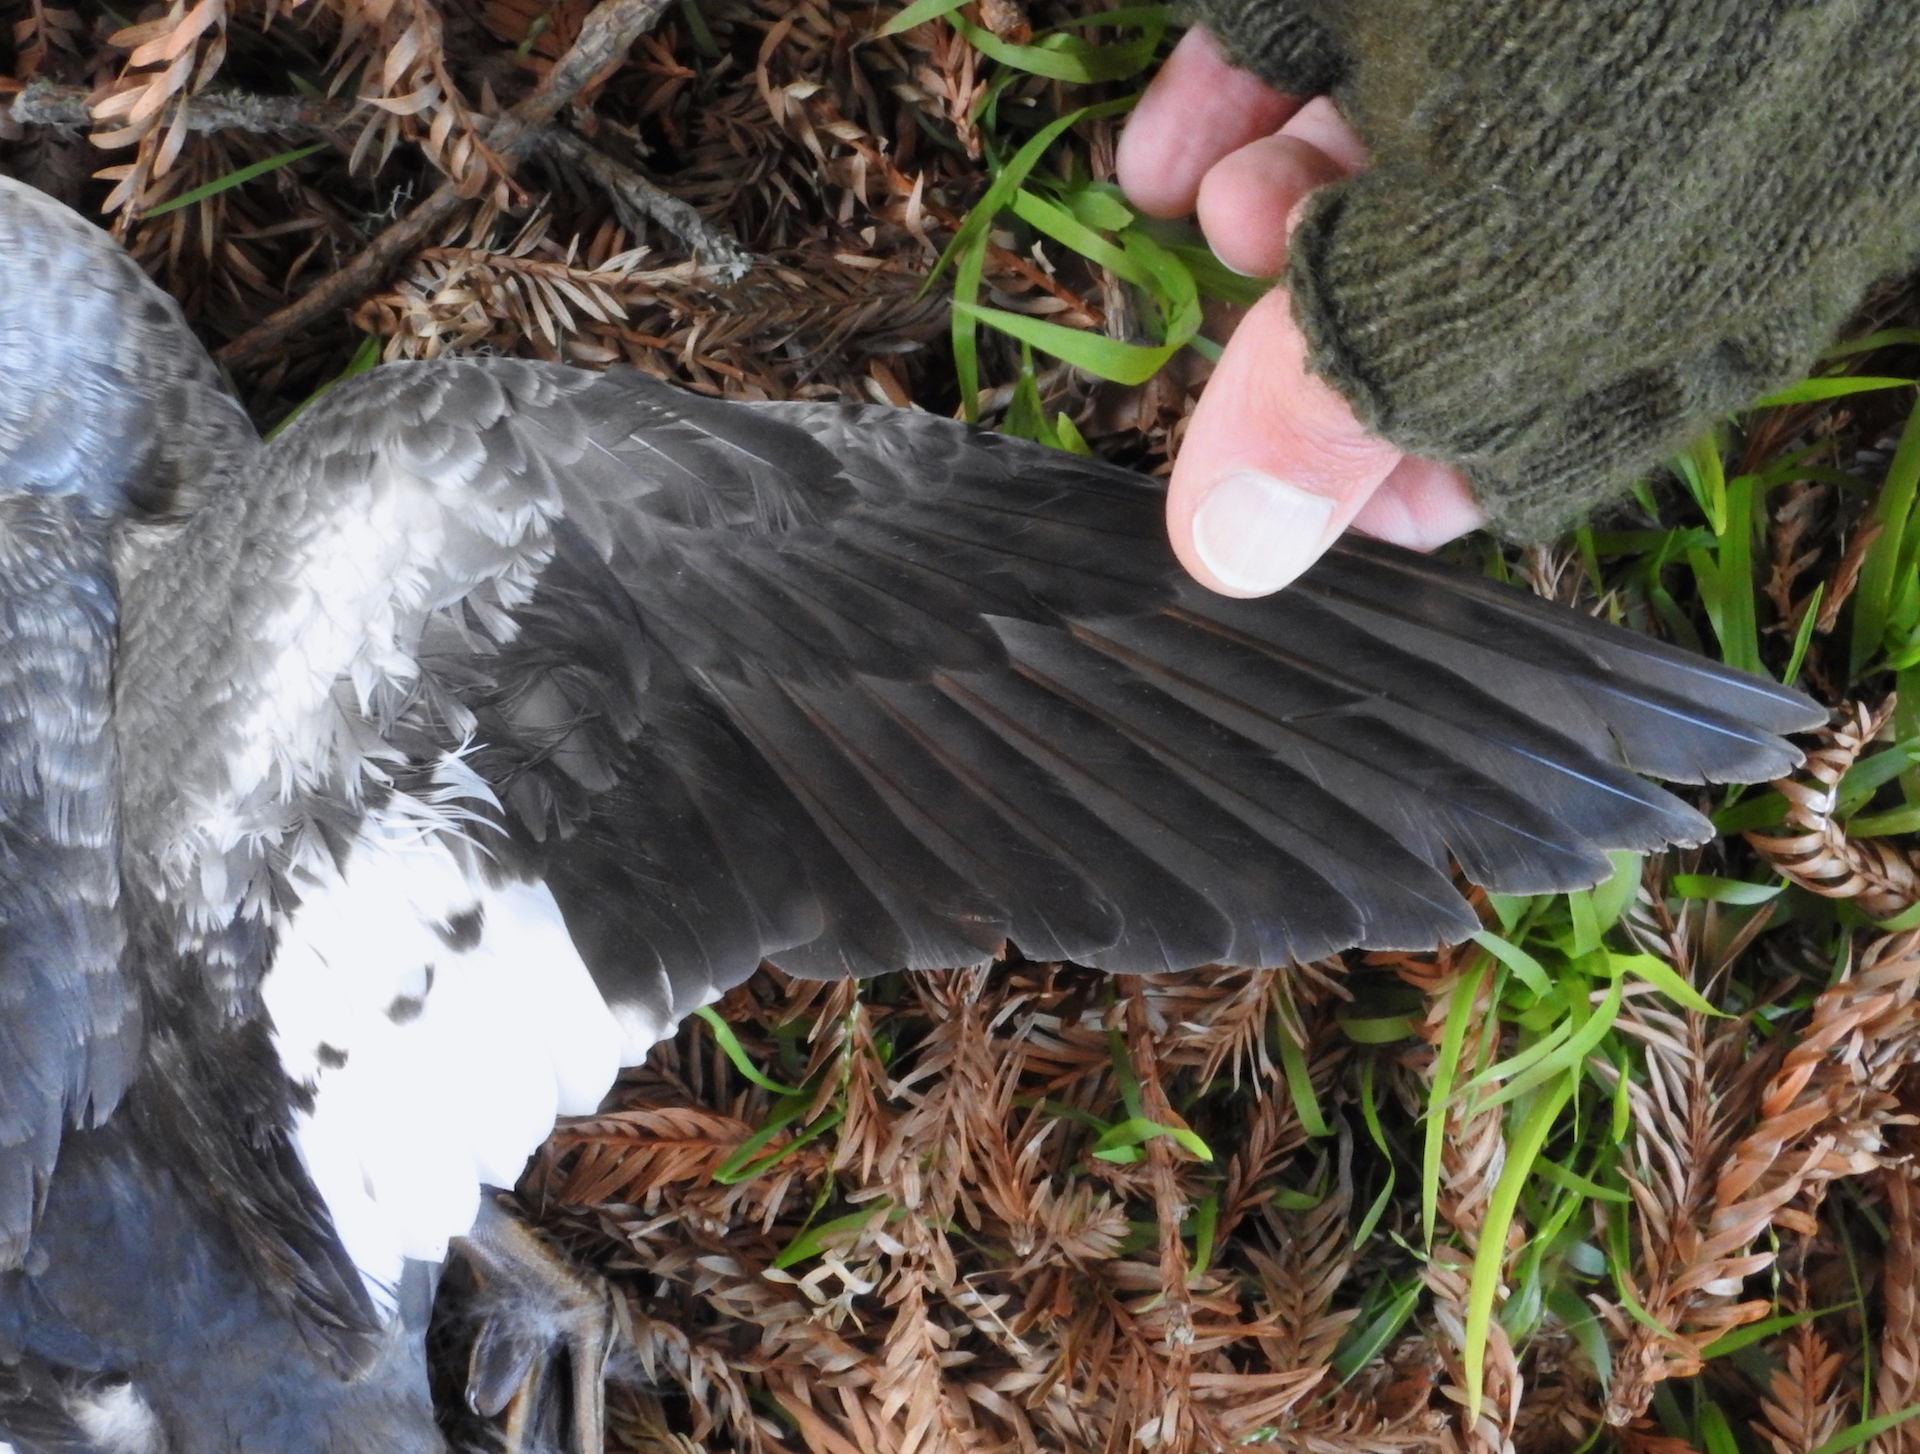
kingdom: Animalia
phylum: Chordata
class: Aves
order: Anseriformes
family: Anatidae
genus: Bucephala
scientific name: Bucephala clangula
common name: Common goldeneye
